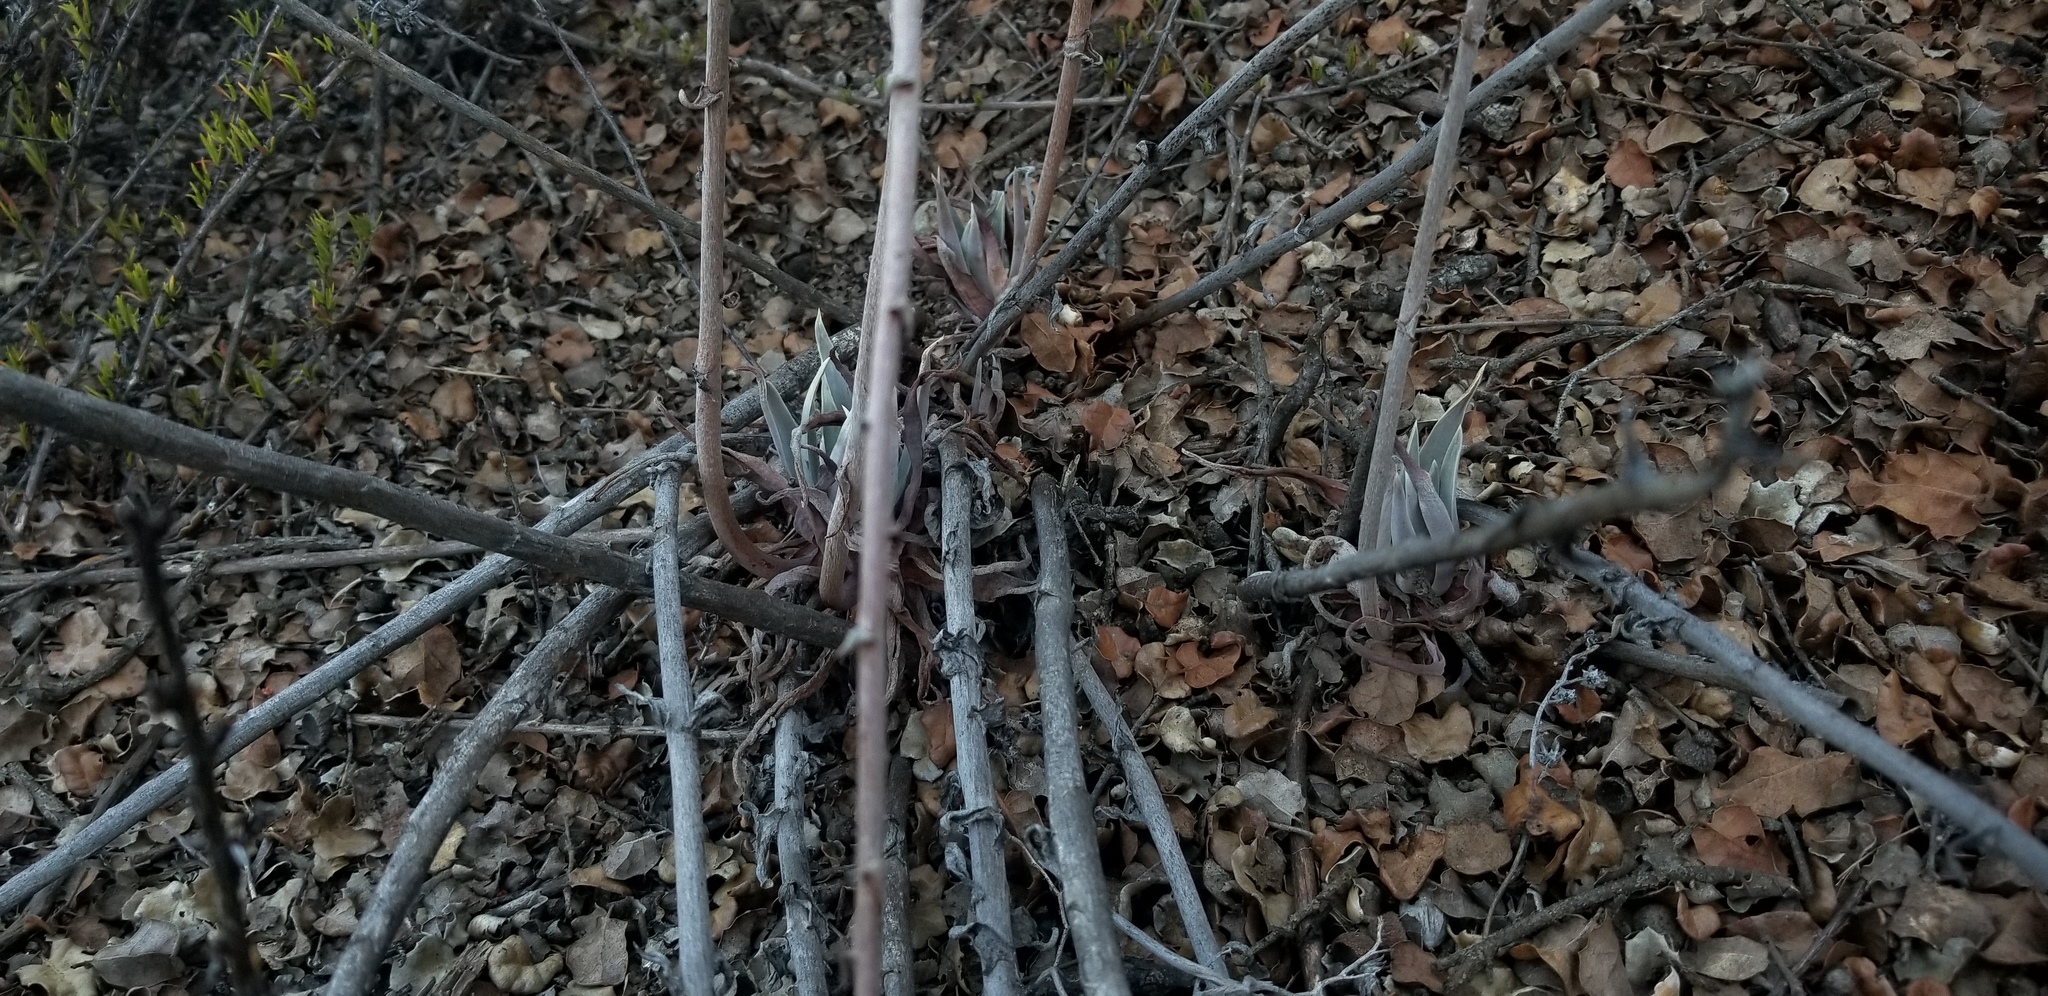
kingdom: Plantae
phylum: Tracheophyta
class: Magnoliopsida
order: Saxifragales
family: Crassulaceae
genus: Dudleya
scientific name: Dudleya lanceolata
